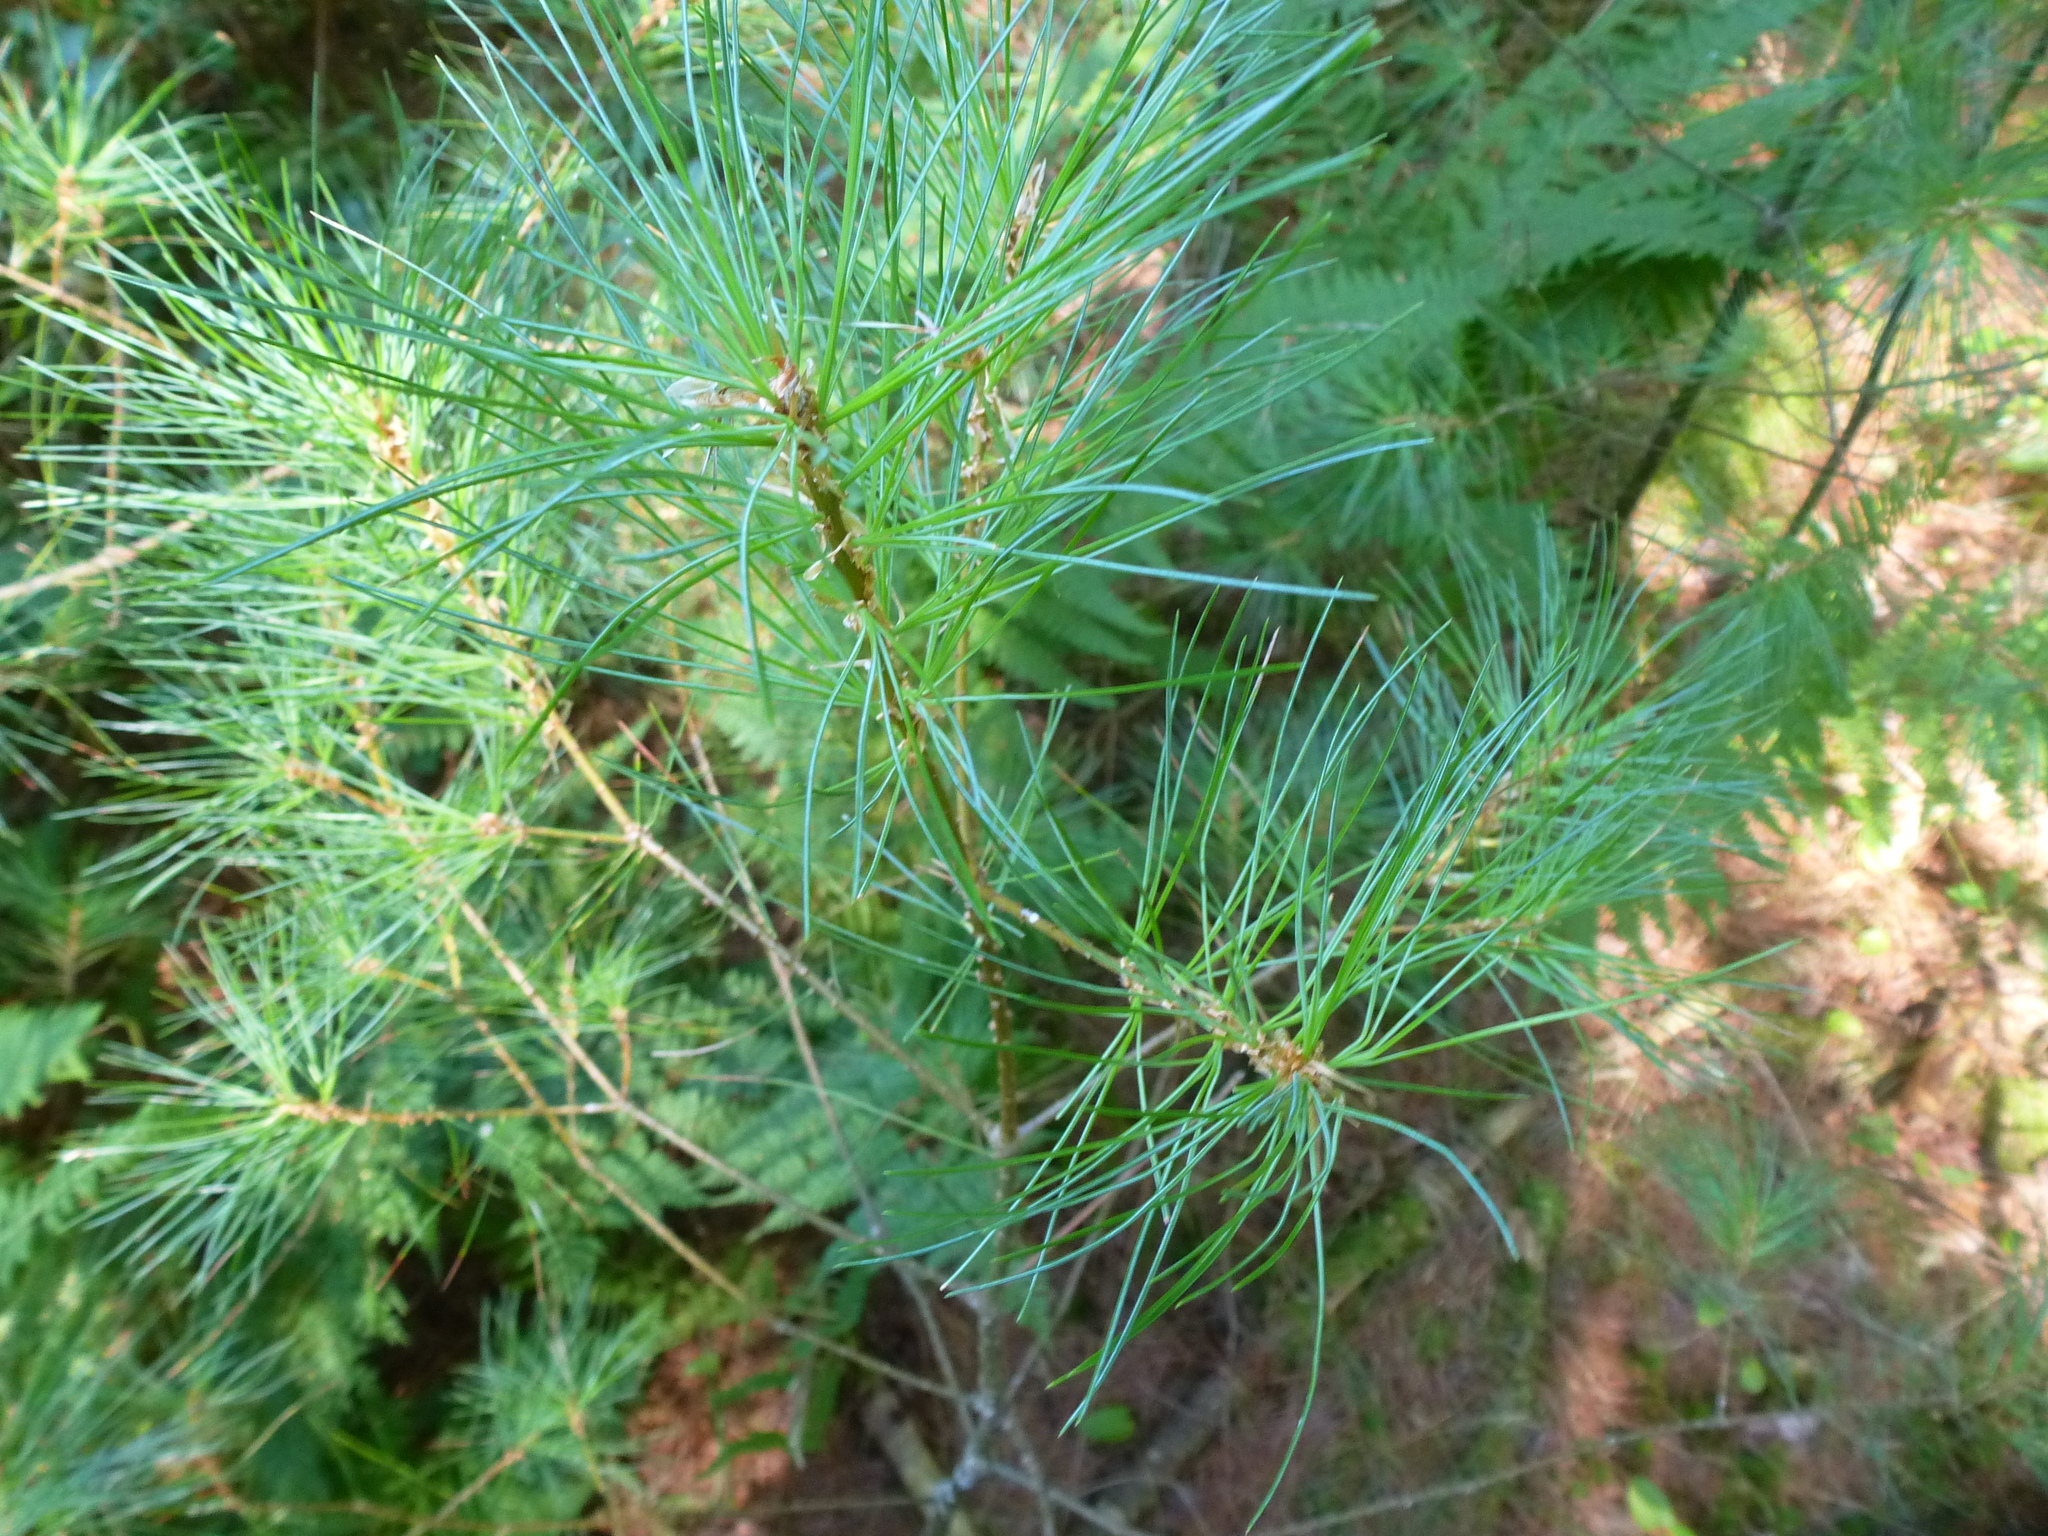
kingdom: Plantae
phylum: Tracheophyta
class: Pinopsida
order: Pinales
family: Pinaceae
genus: Pinus
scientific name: Pinus strobus
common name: Weymouth pine
